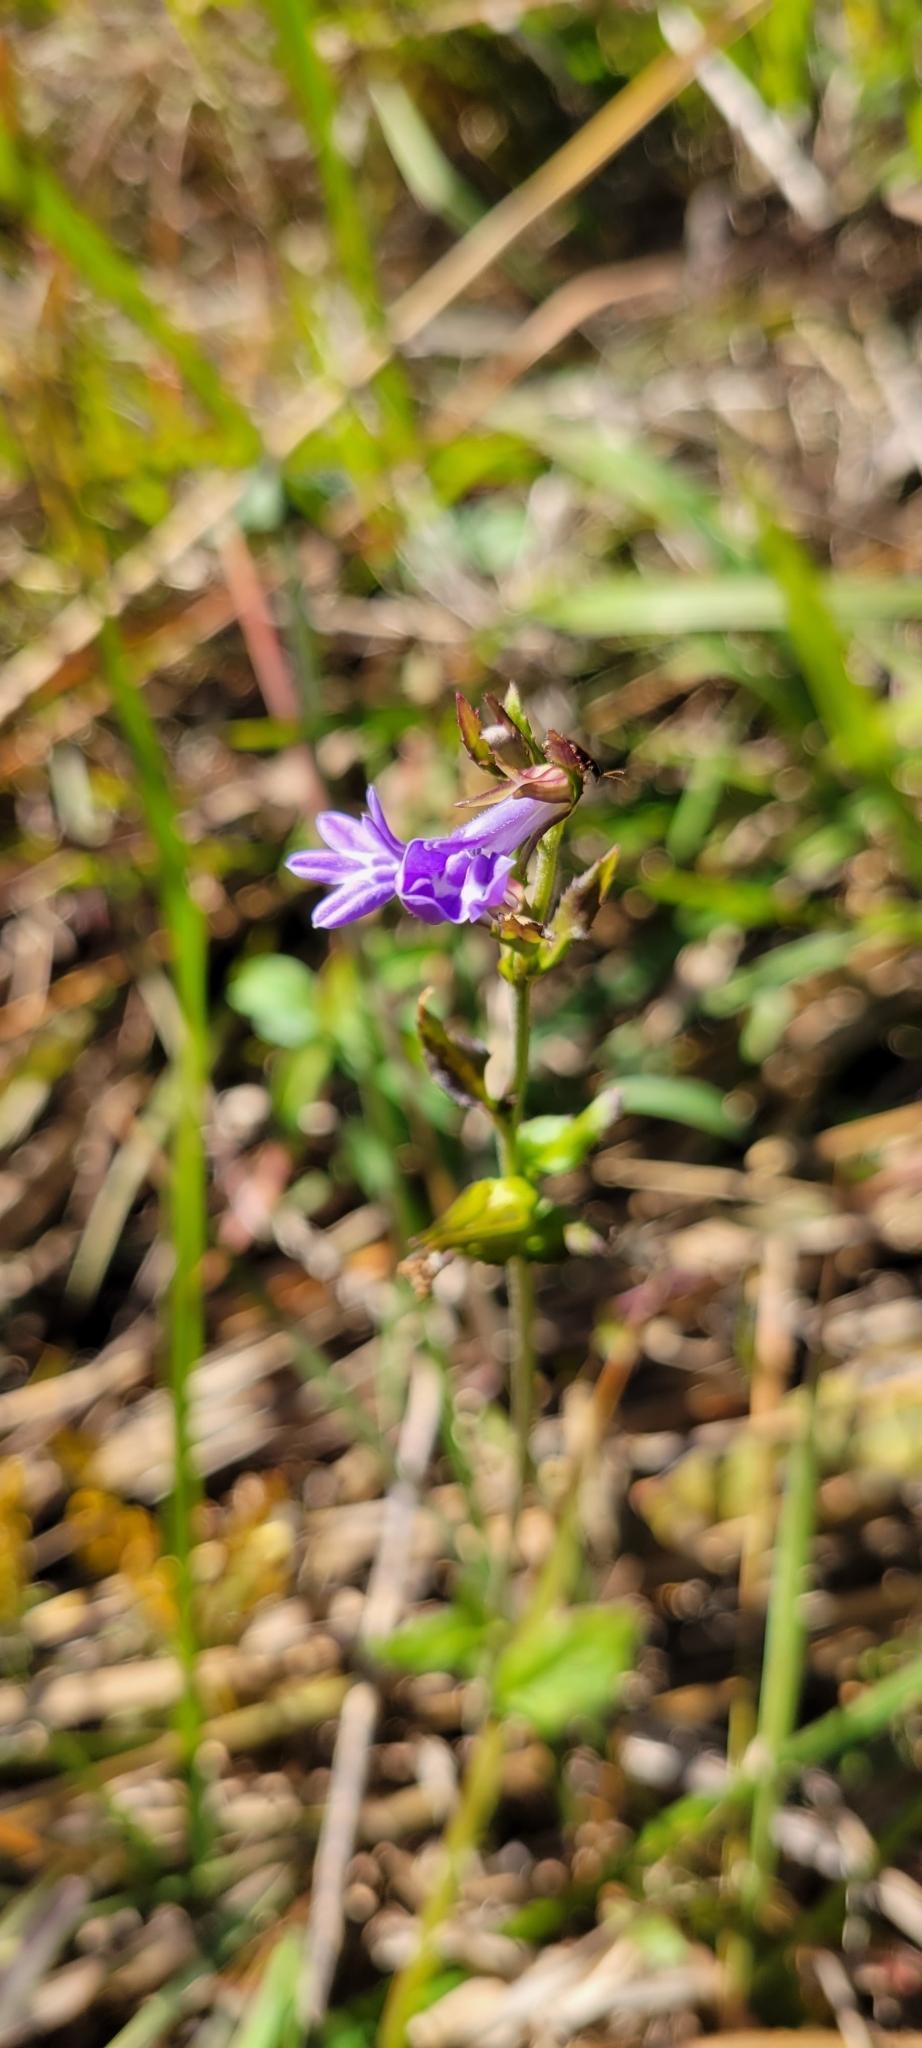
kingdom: Plantae
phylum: Tracheophyta
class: Magnoliopsida
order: Asterales
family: Campanulaceae
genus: Lobelia
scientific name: Lobelia puberula
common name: Purple dewdrop
